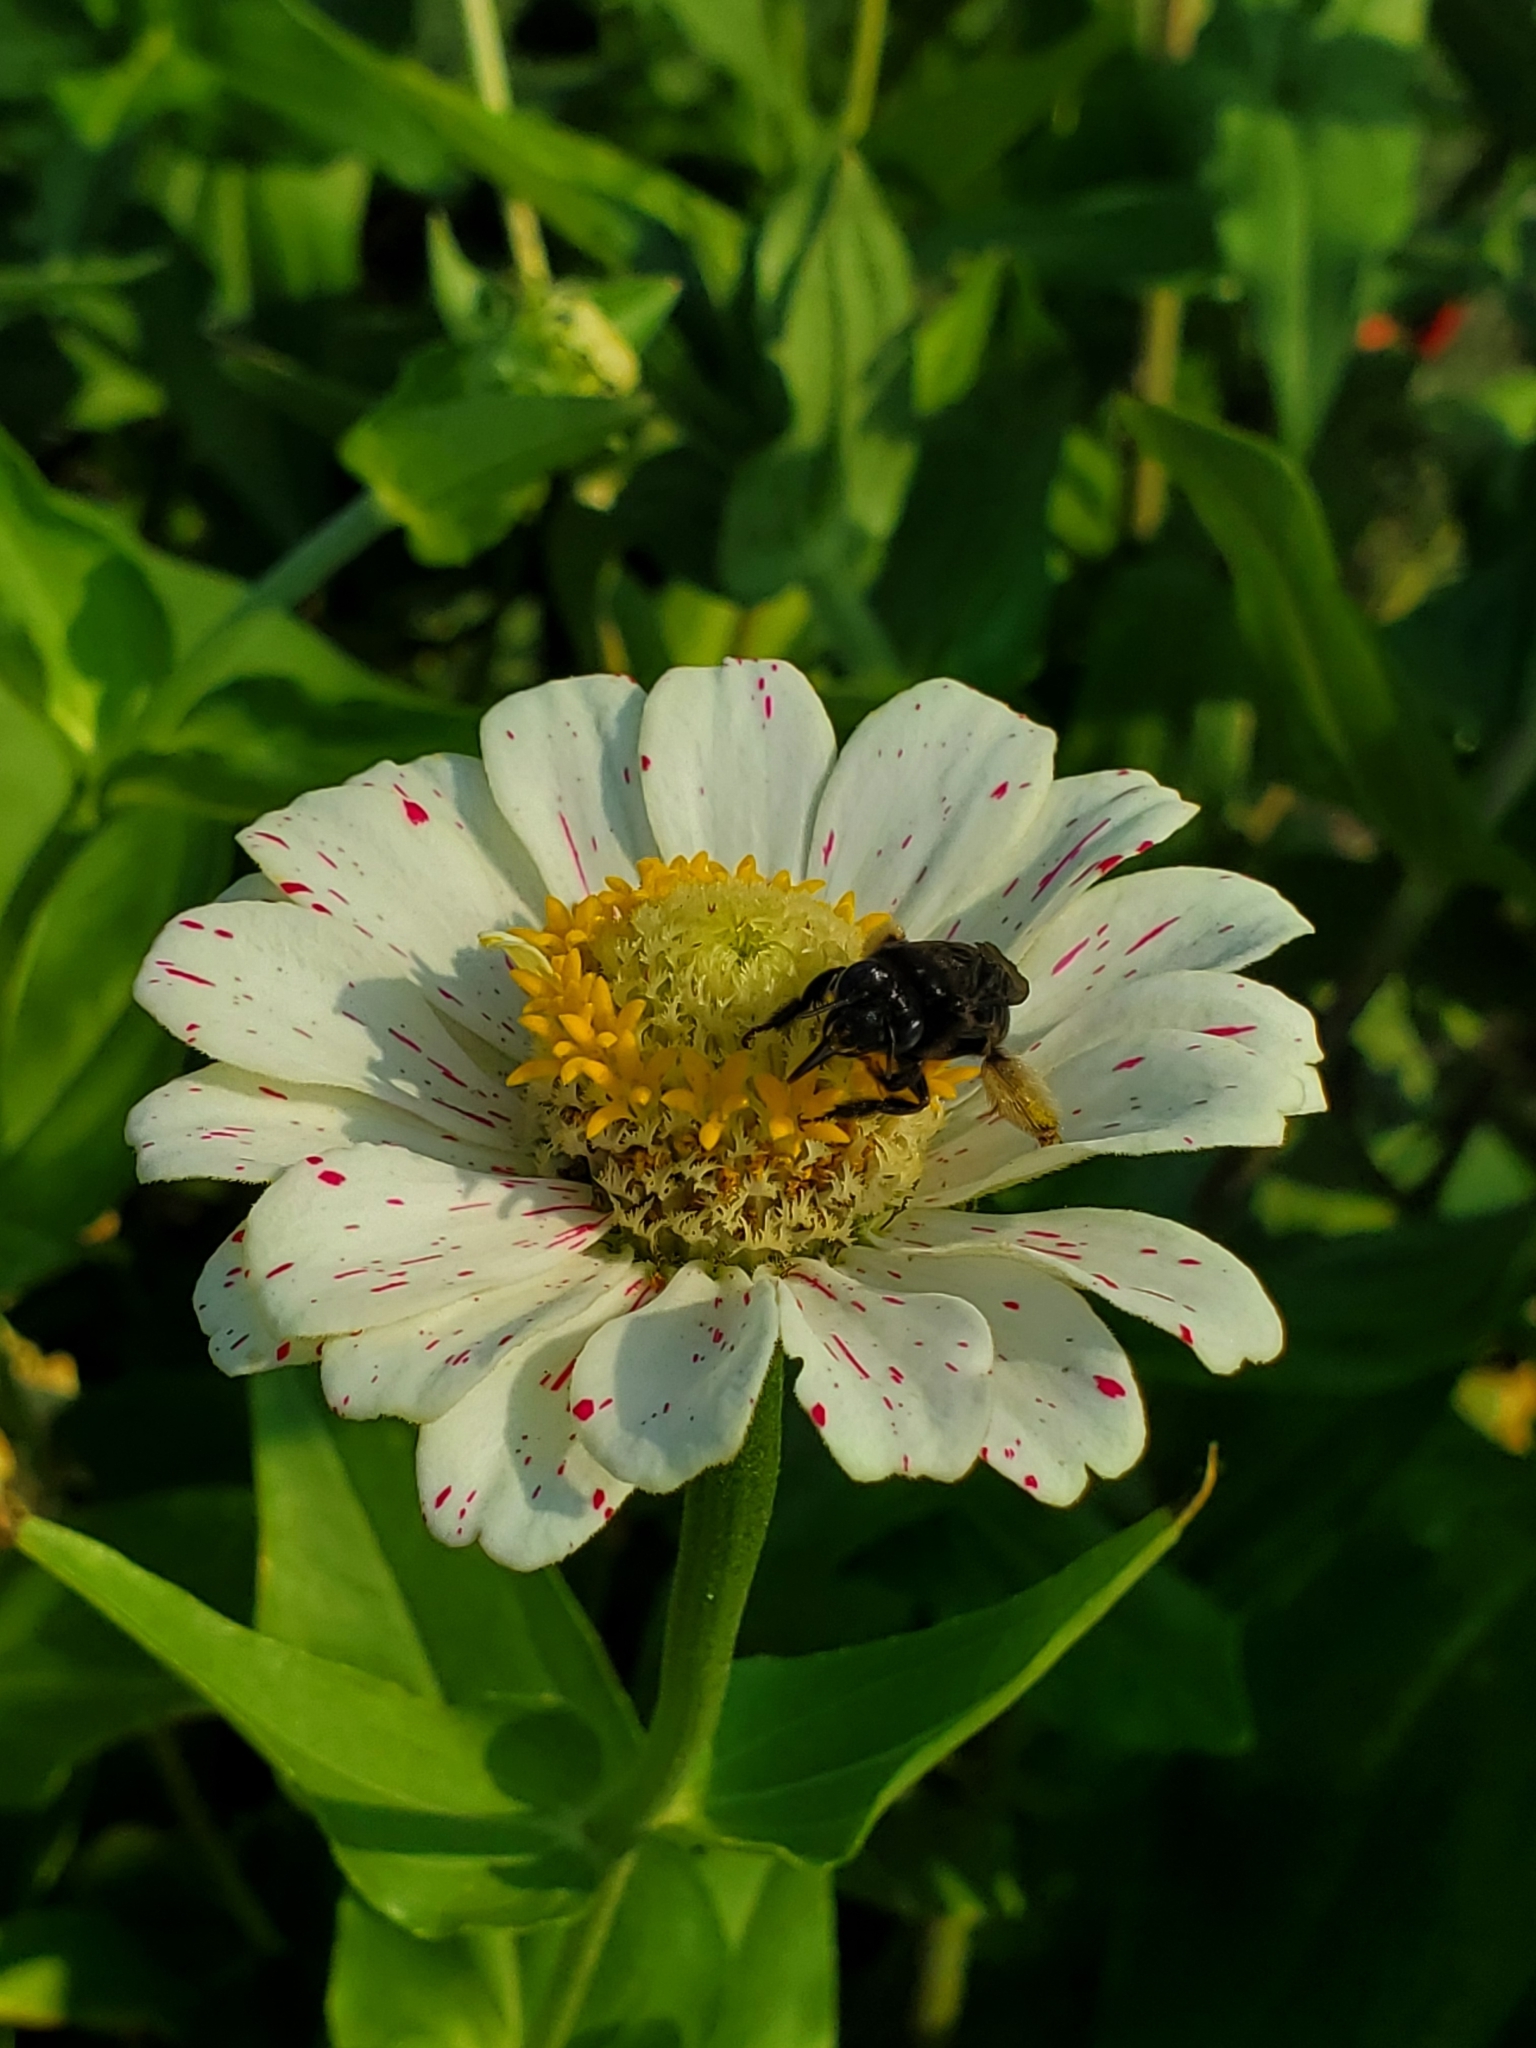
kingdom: Animalia
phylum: Arthropoda
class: Insecta
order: Hymenoptera
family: Apidae
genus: Melissodes
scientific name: Melissodes bimaculatus
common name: Two-spotted long-horned bee
